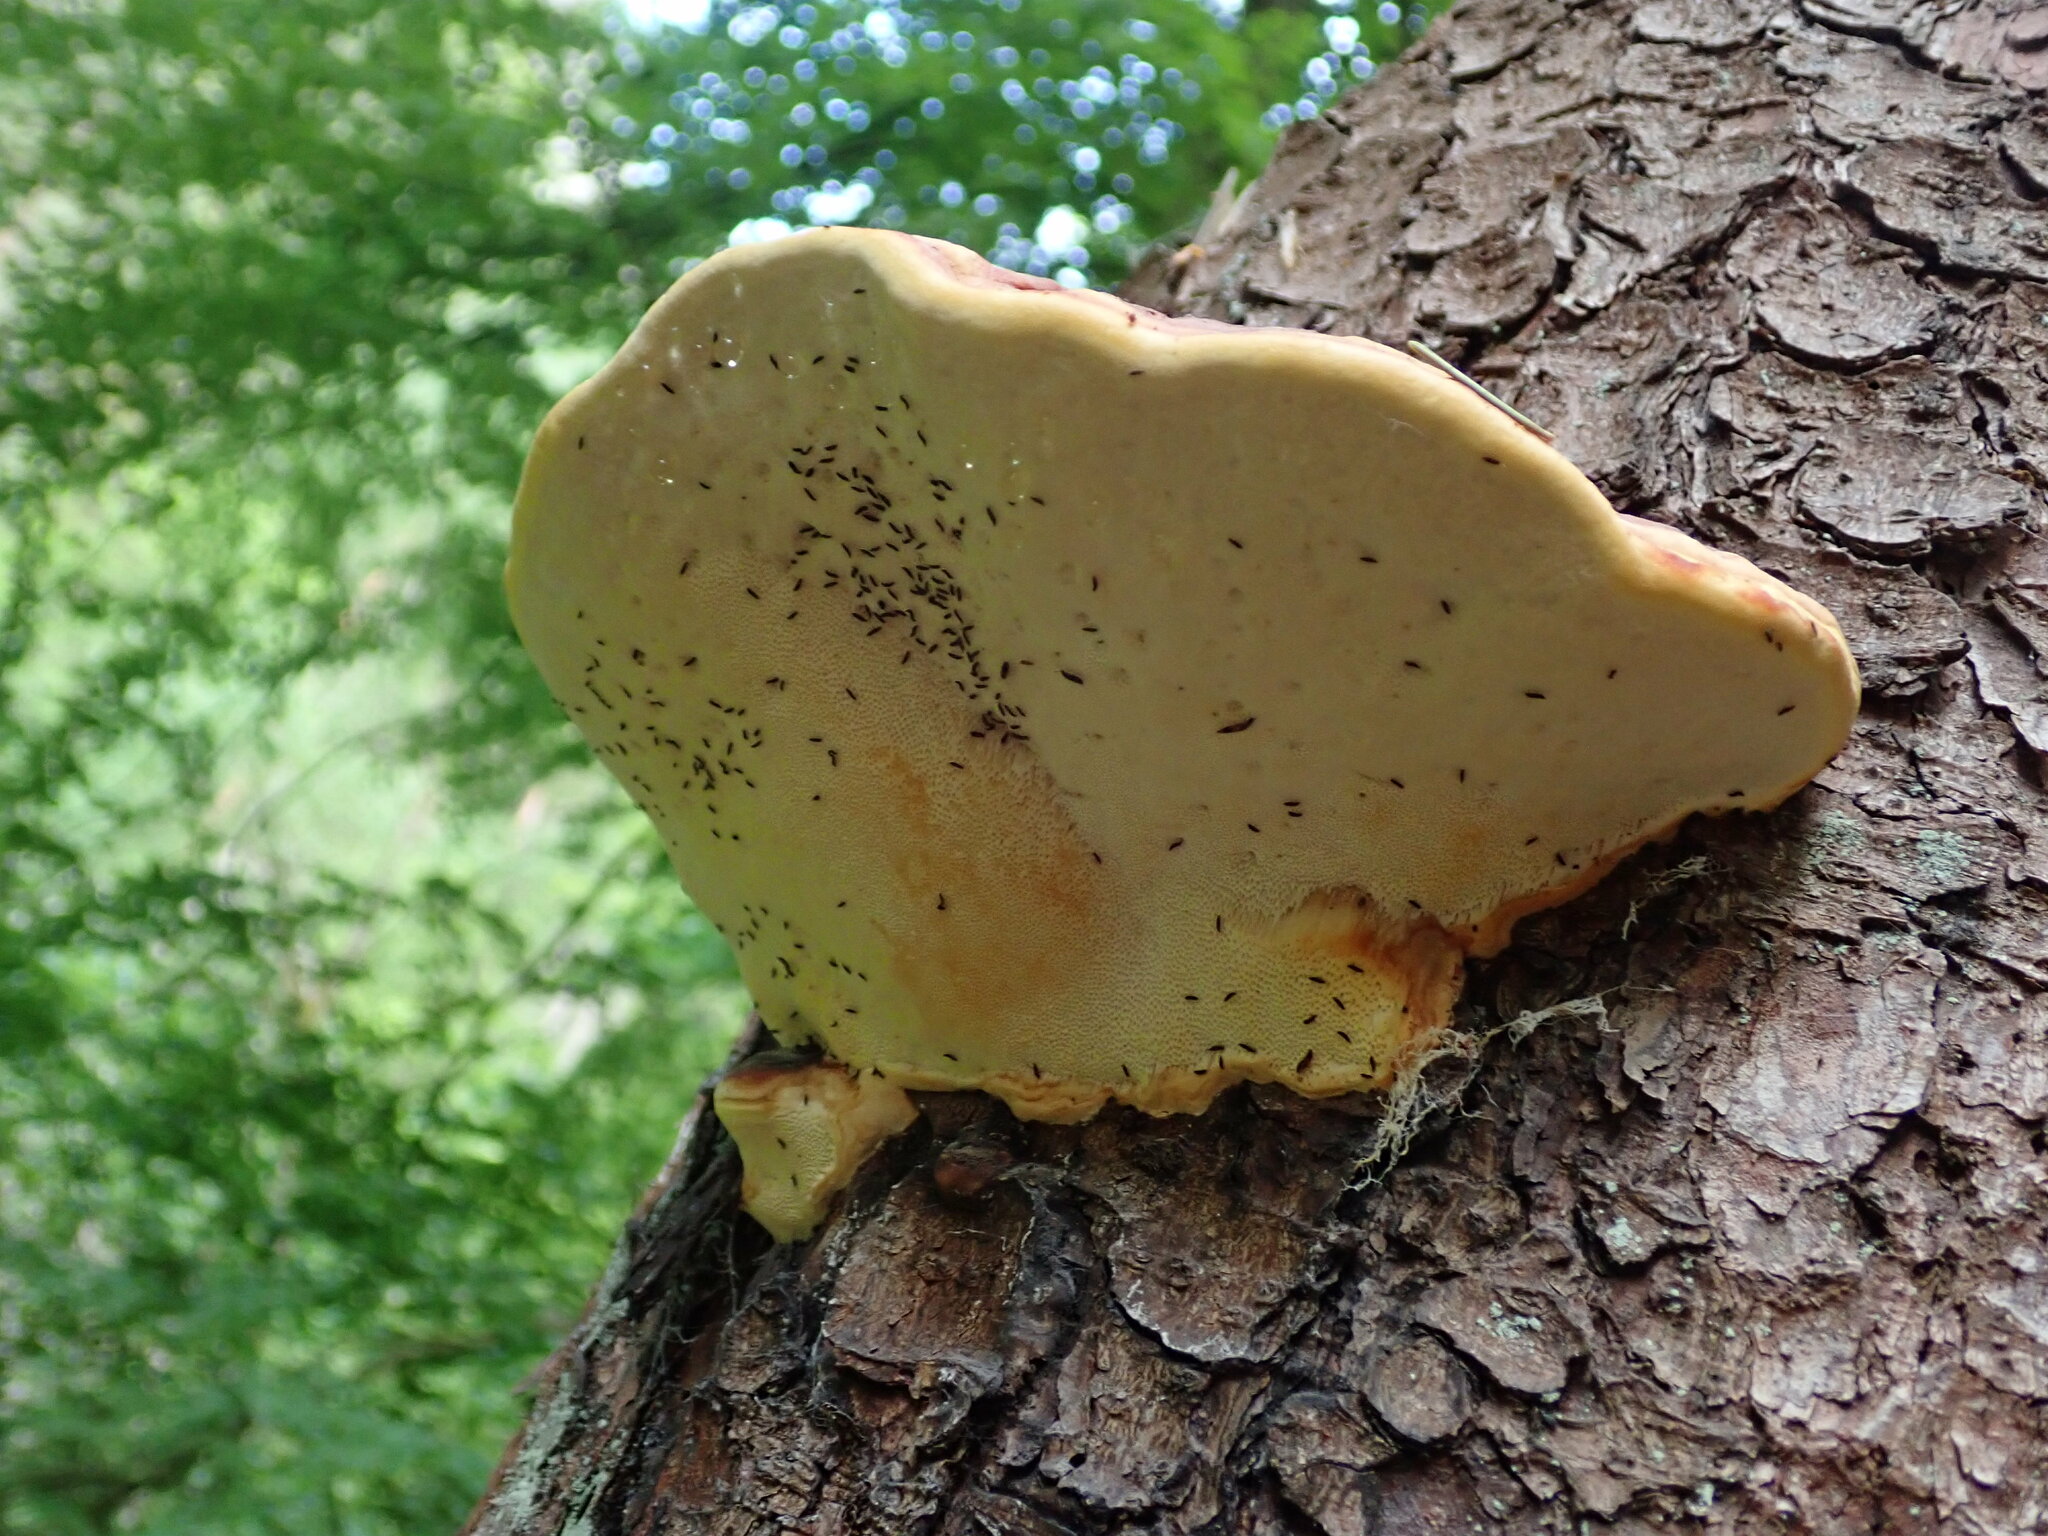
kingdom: Fungi
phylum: Basidiomycota
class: Agaricomycetes
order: Polyporales
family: Fomitopsidaceae
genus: Fomitopsis
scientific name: Fomitopsis pinicola
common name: Red-belted bracket
